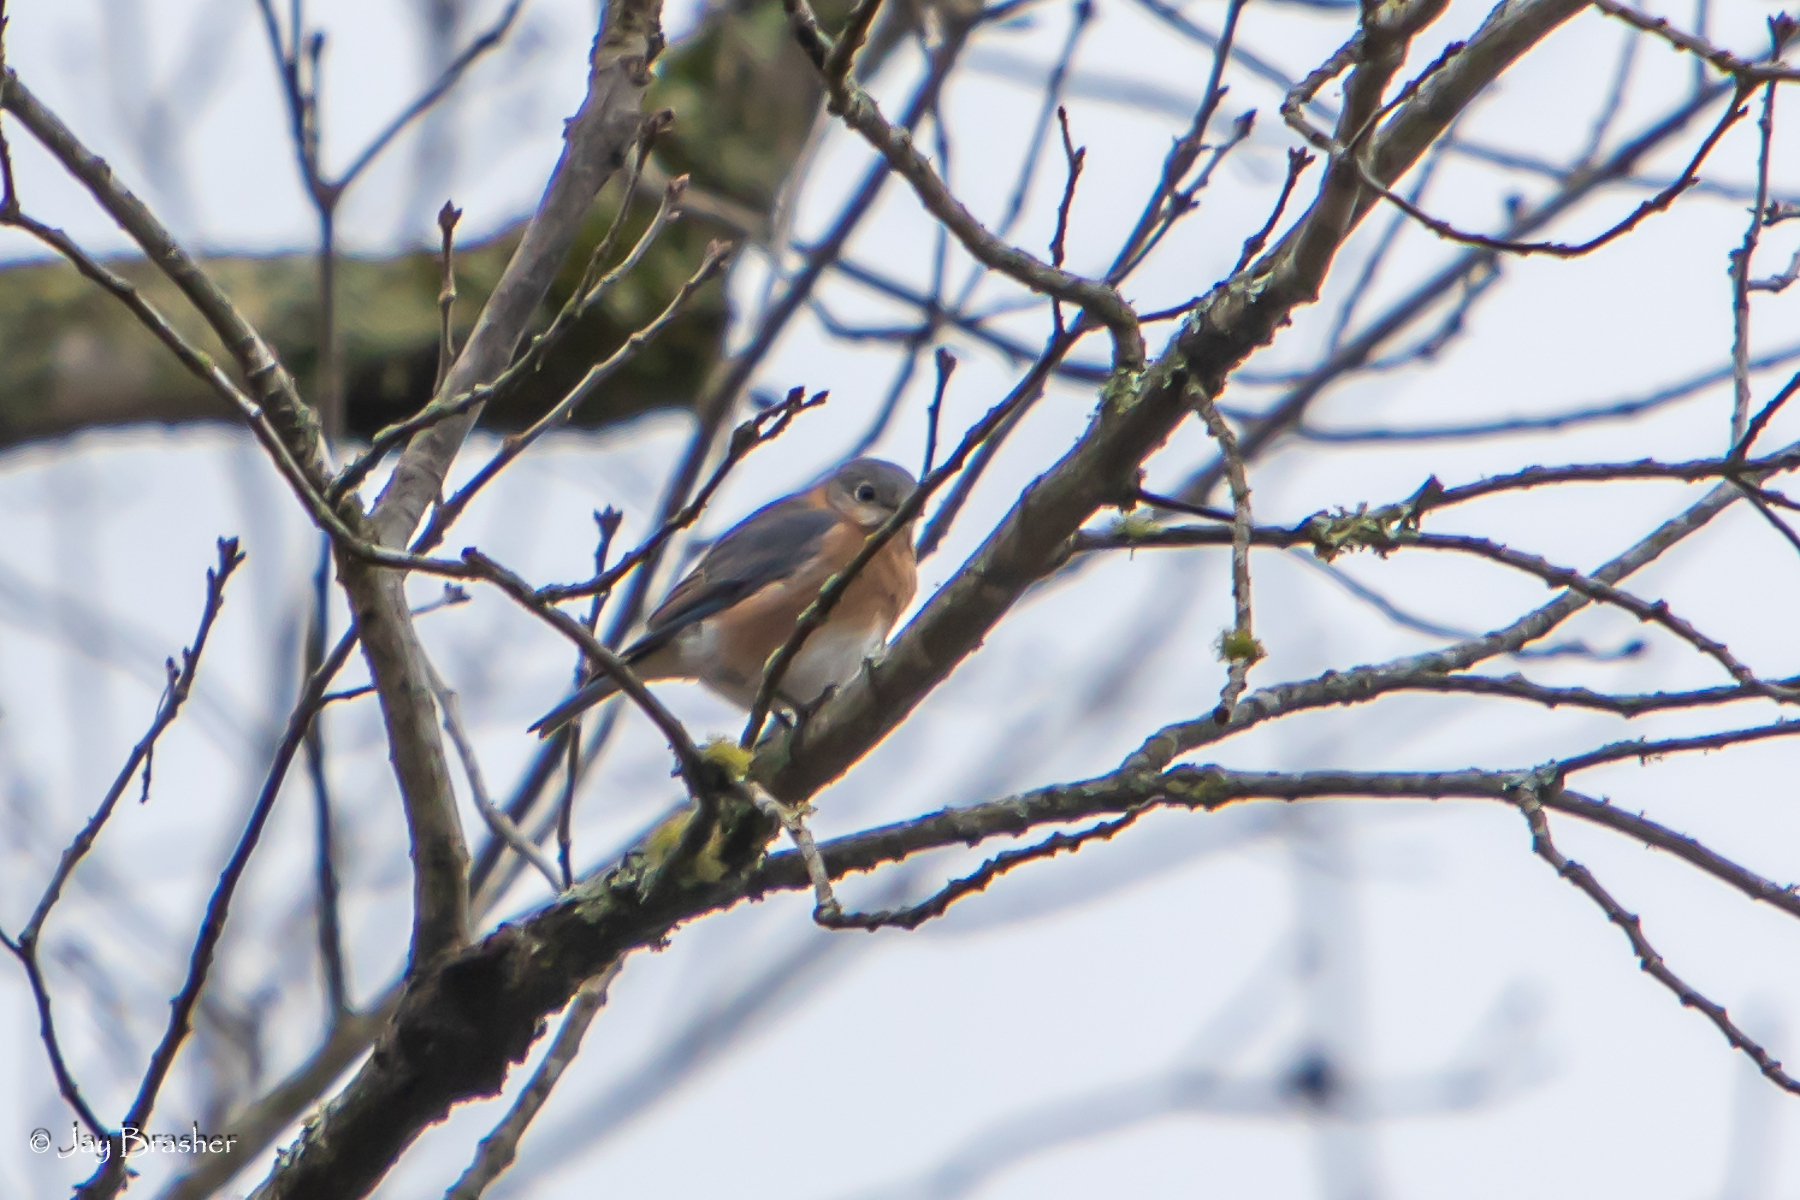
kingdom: Animalia
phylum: Chordata
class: Aves
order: Passeriformes
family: Turdidae
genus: Sialia
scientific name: Sialia sialis
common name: Eastern bluebird
